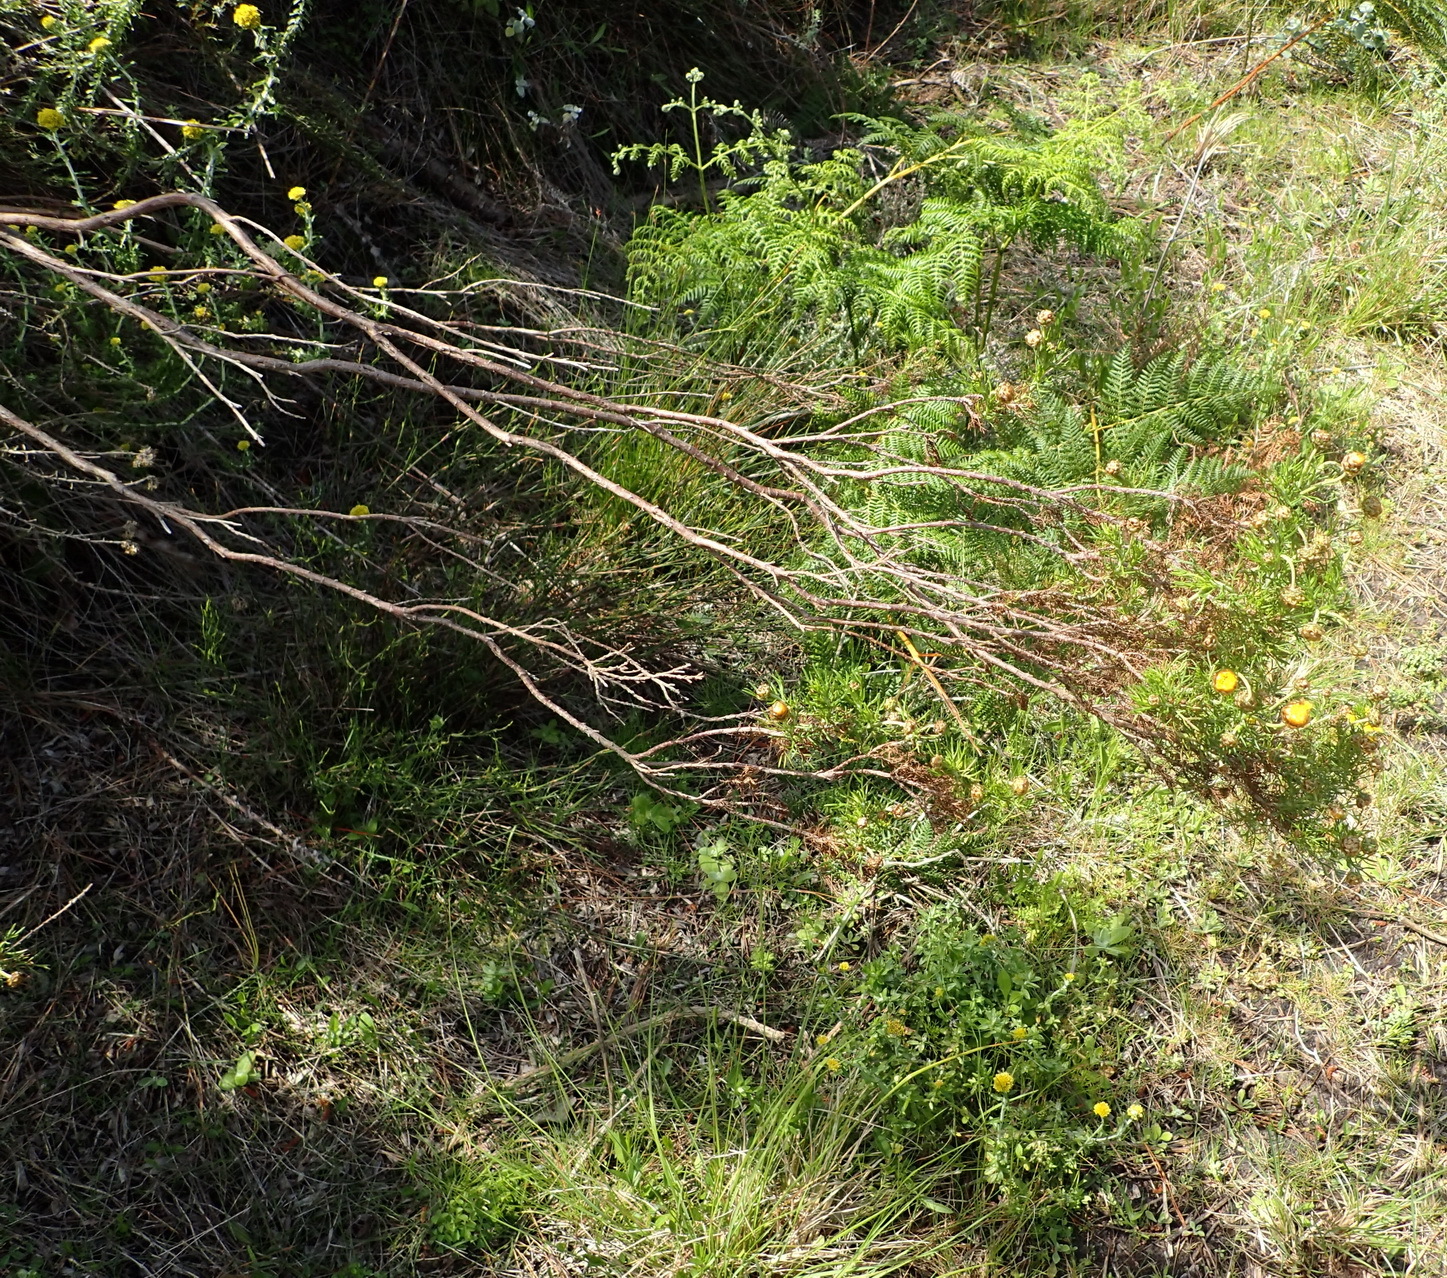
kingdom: Plantae
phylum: Tracheophyta
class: Magnoliopsida
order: Asterales
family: Asteraceae
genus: Ursinia
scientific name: Ursinia scariosa
